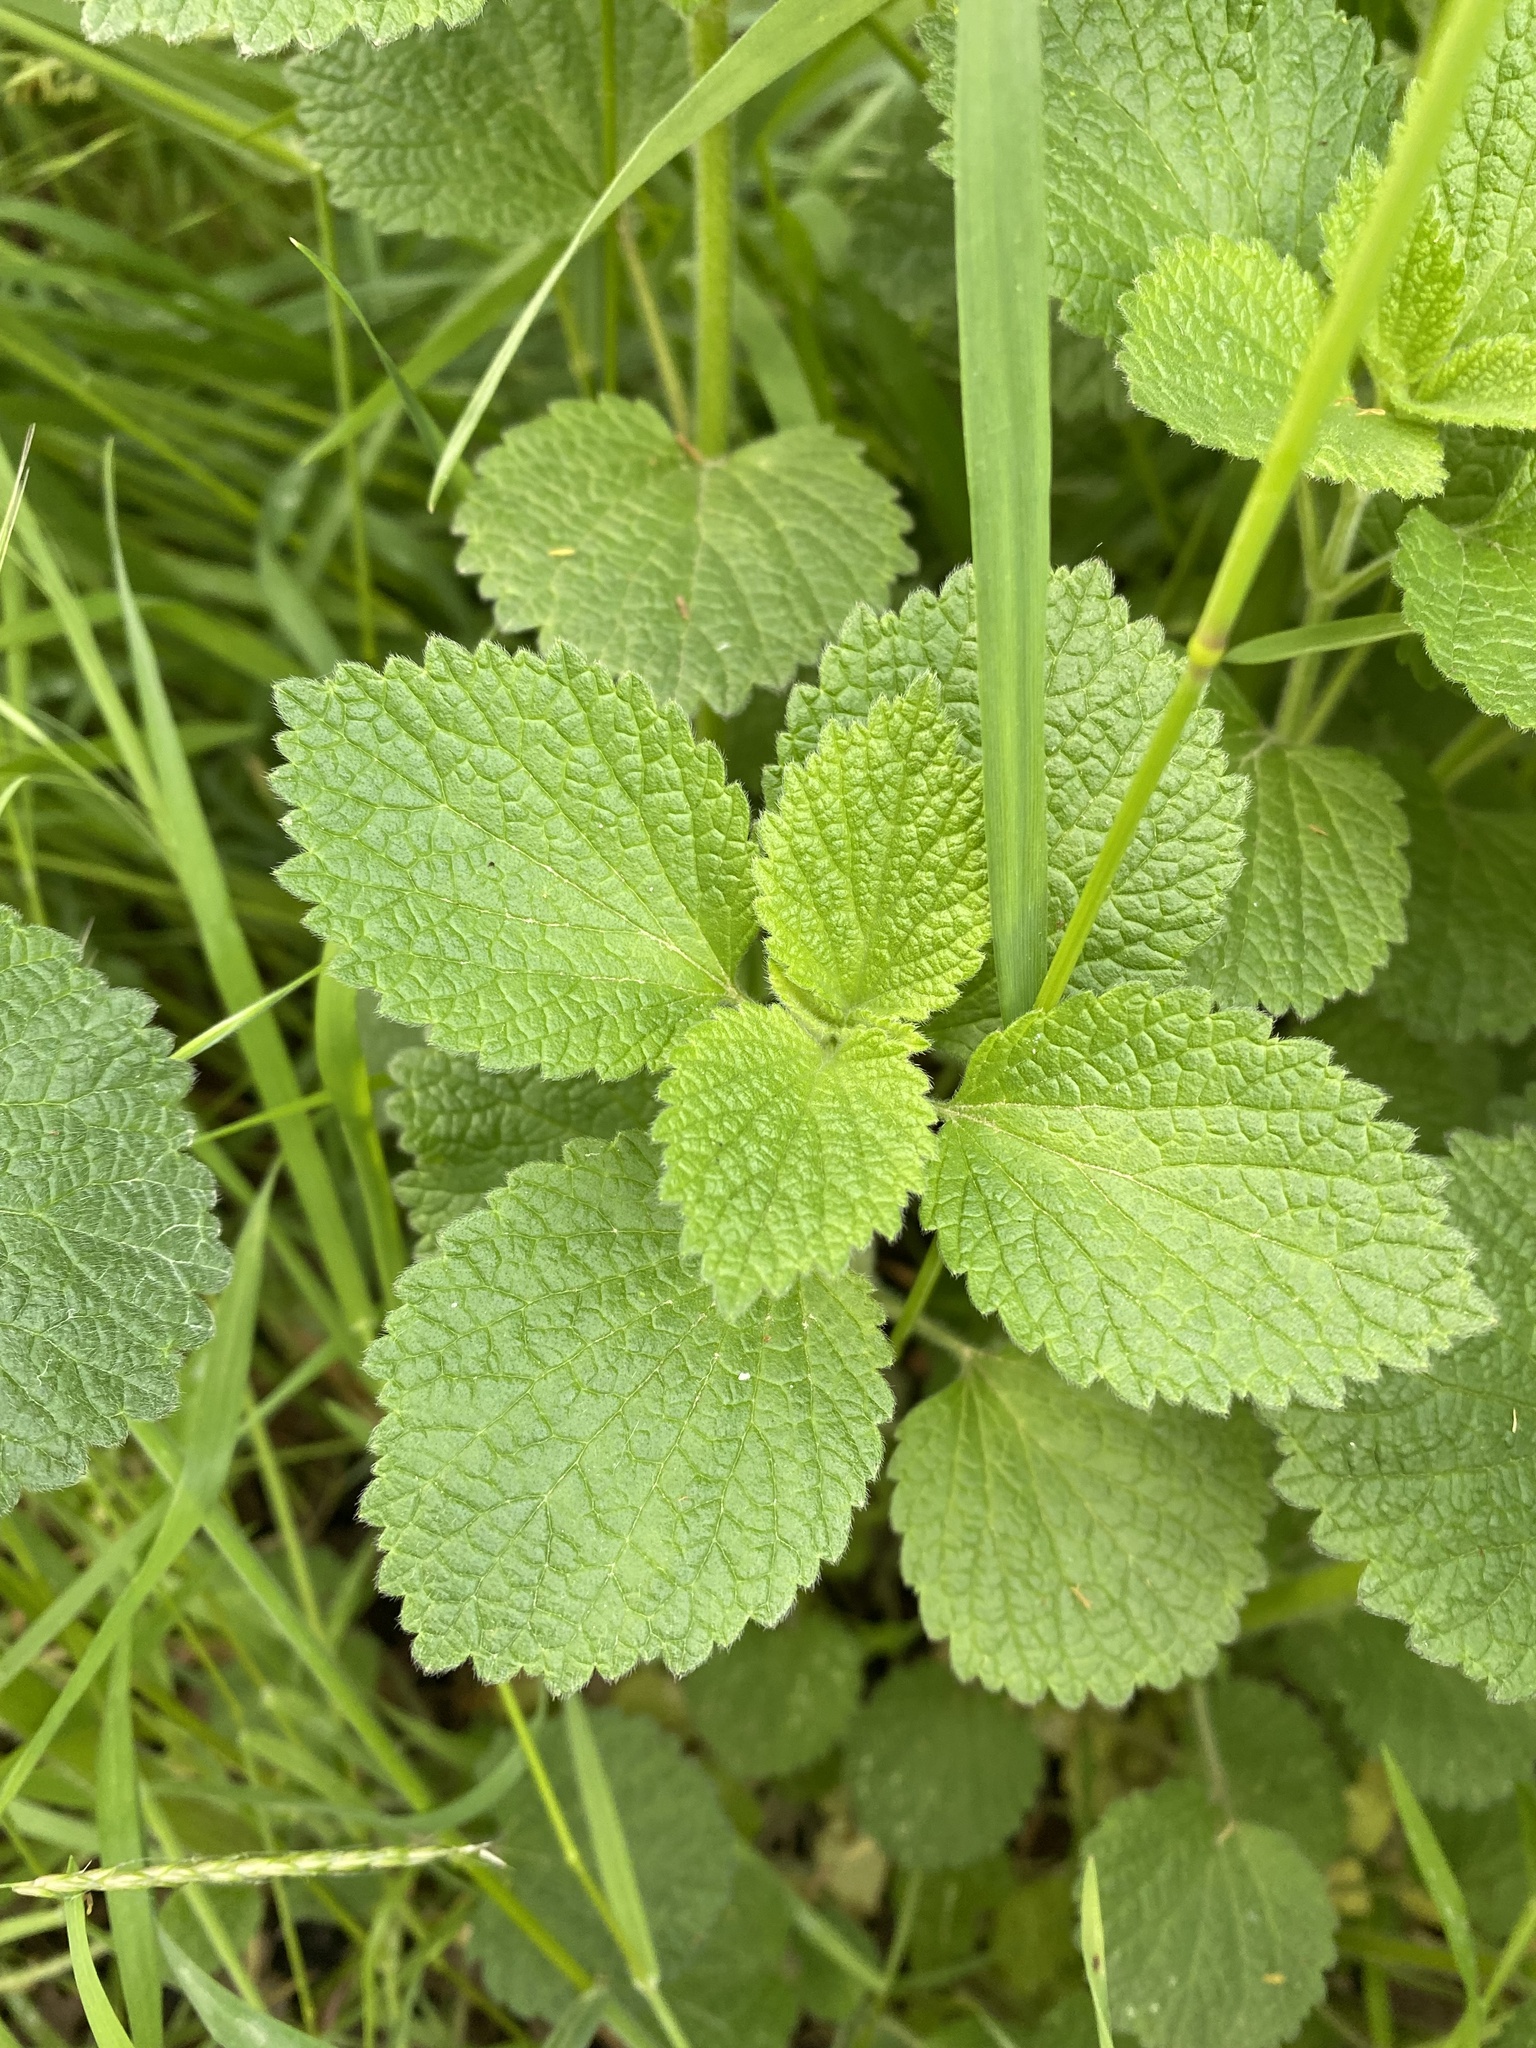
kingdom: Plantae
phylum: Tracheophyta
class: Magnoliopsida
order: Lamiales
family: Lamiaceae
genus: Ballota
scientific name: Ballota nigra
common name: Black horehound
